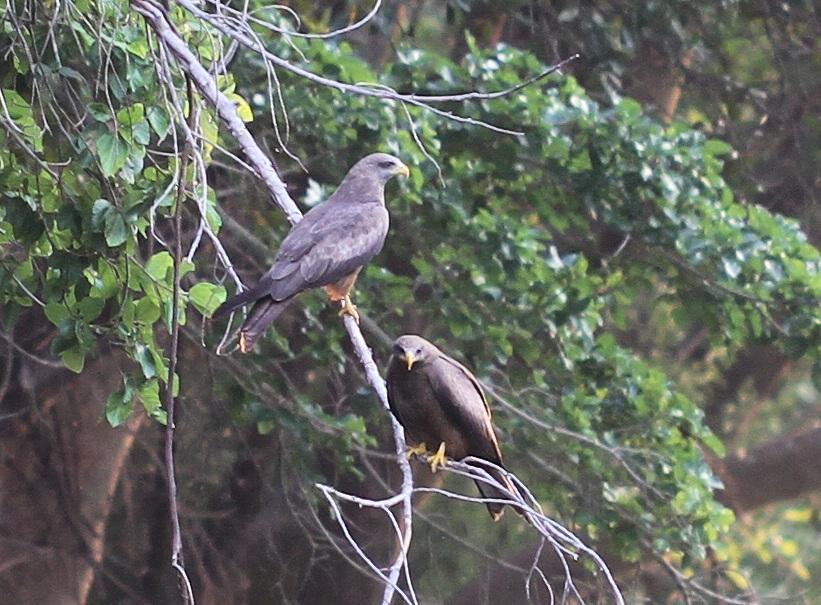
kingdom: Animalia
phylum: Chordata
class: Aves
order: Accipitriformes
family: Accipitridae
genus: Milvus
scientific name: Milvus migrans
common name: Black kite
